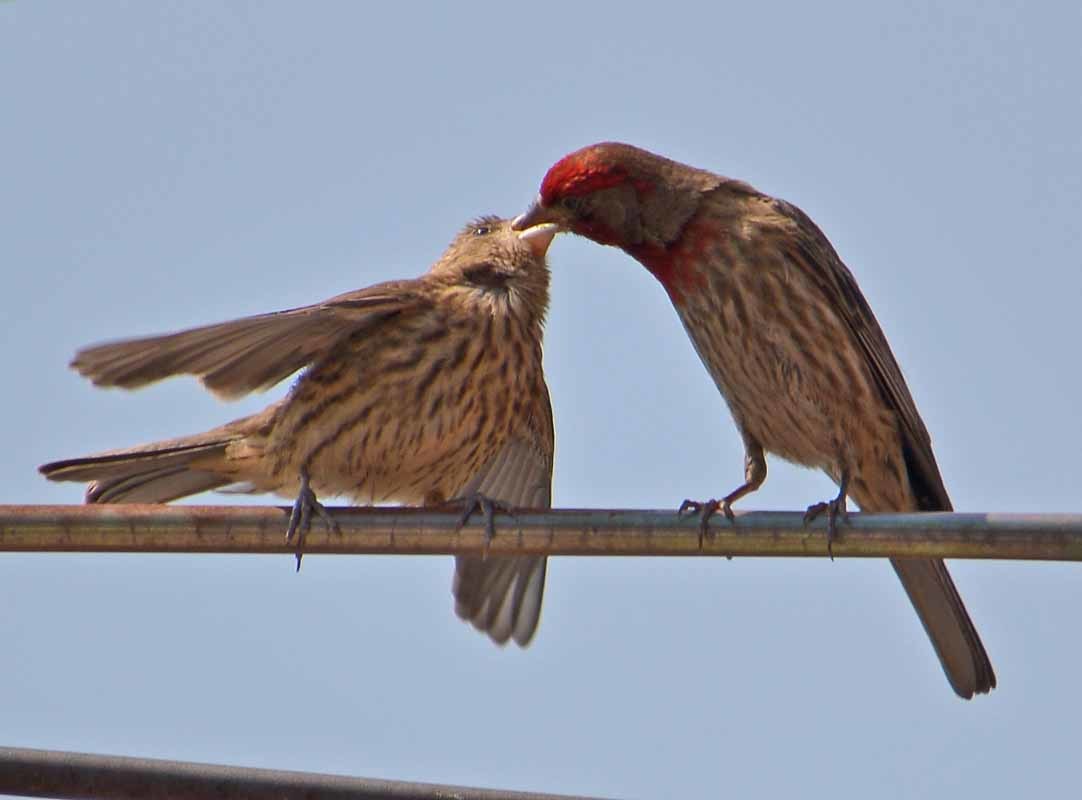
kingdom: Animalia
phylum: Chordata
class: Aves
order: Passeriformes
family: Fringillidae
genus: Haemorhous
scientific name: Haemorhous mexicanus
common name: House finch
